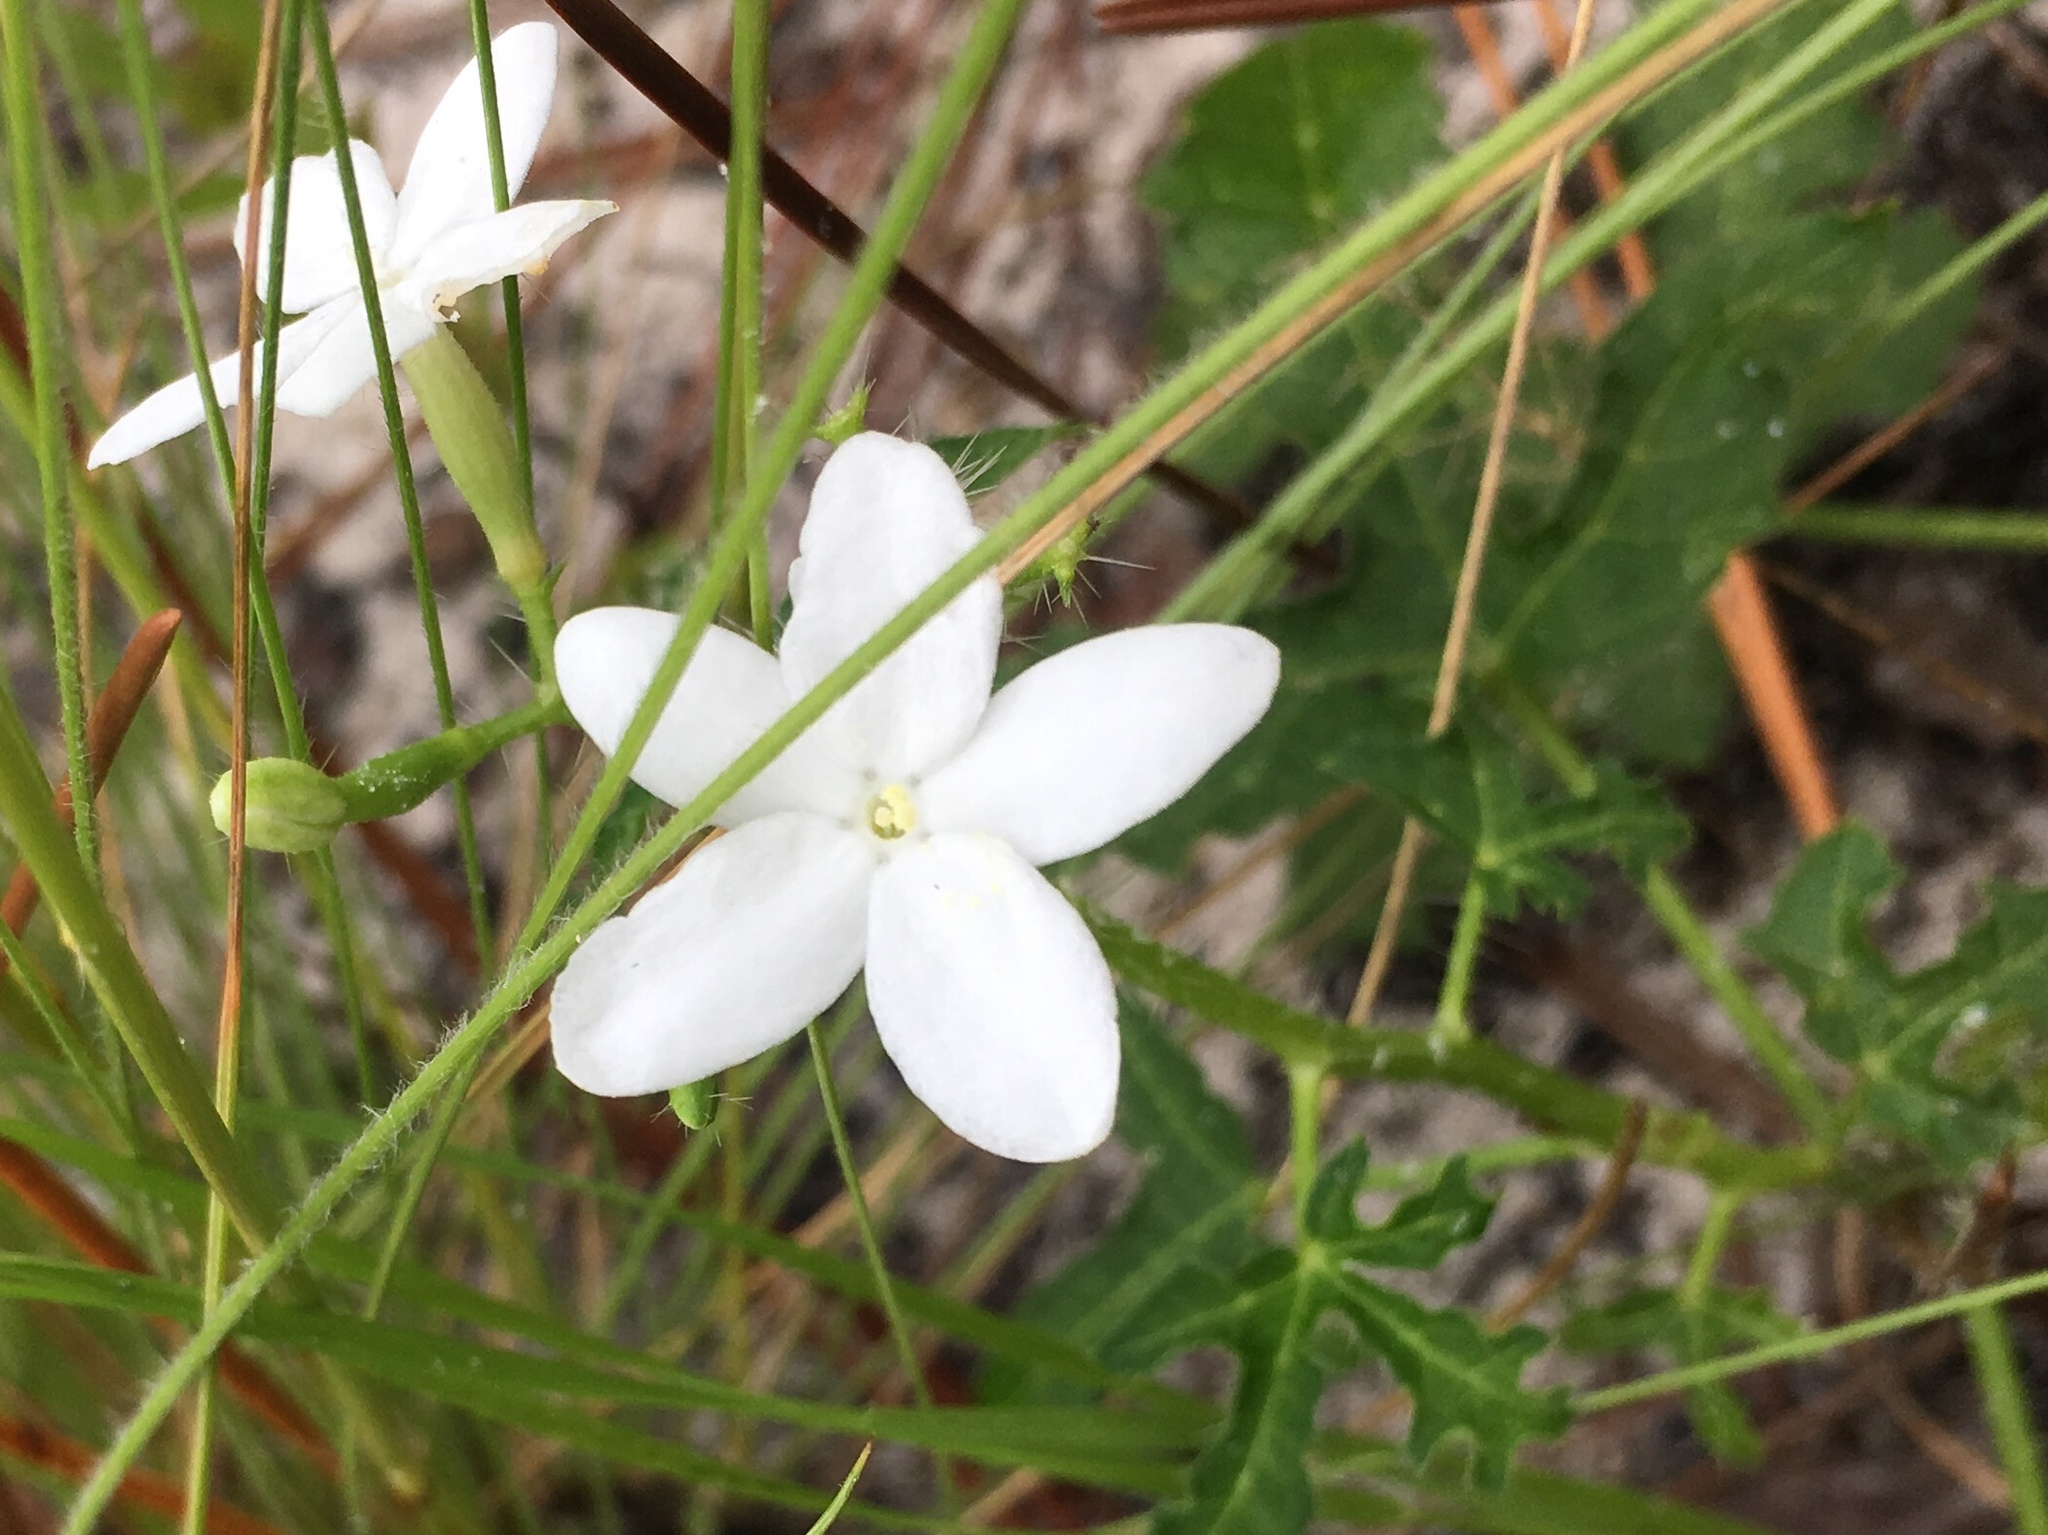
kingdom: Plantae
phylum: Tracheophyta
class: Magnoliopsida
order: Malpighiales
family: Euphorbiaceae
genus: Cnidoscolus
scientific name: Cnidoscolus stimulosus
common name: Bull-nettle
